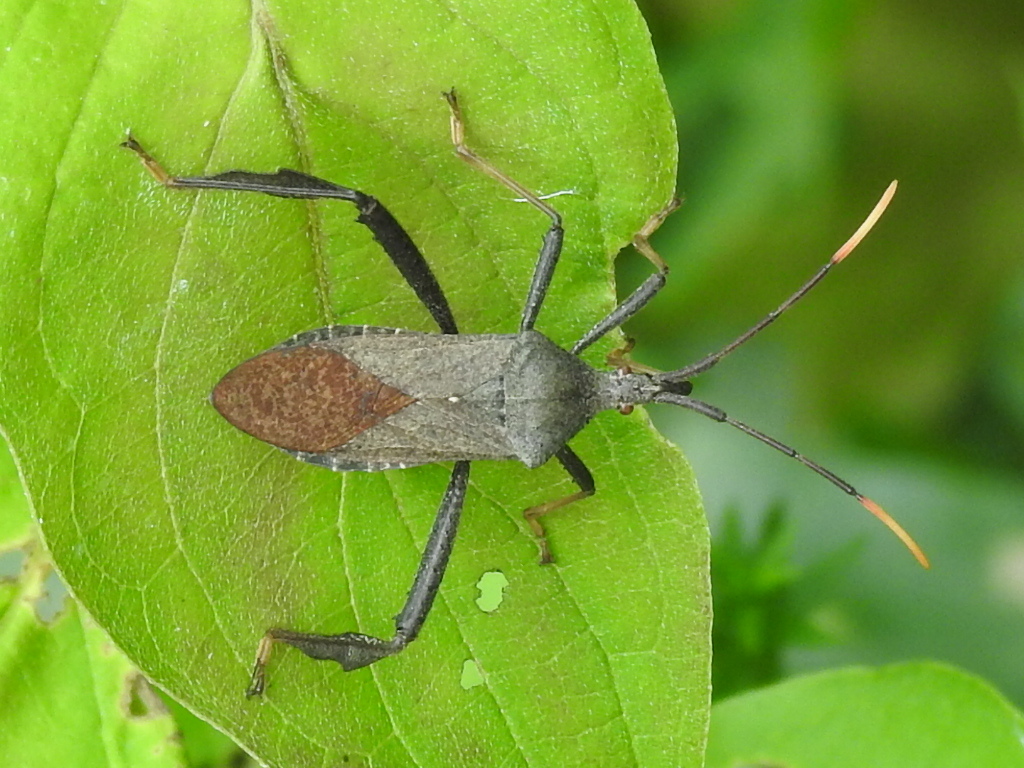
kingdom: Animalia
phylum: Arthropoda
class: Insecta
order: Hemiptera
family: Coreidae
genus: Acanthocephala
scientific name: Acanthocephala terminalis
